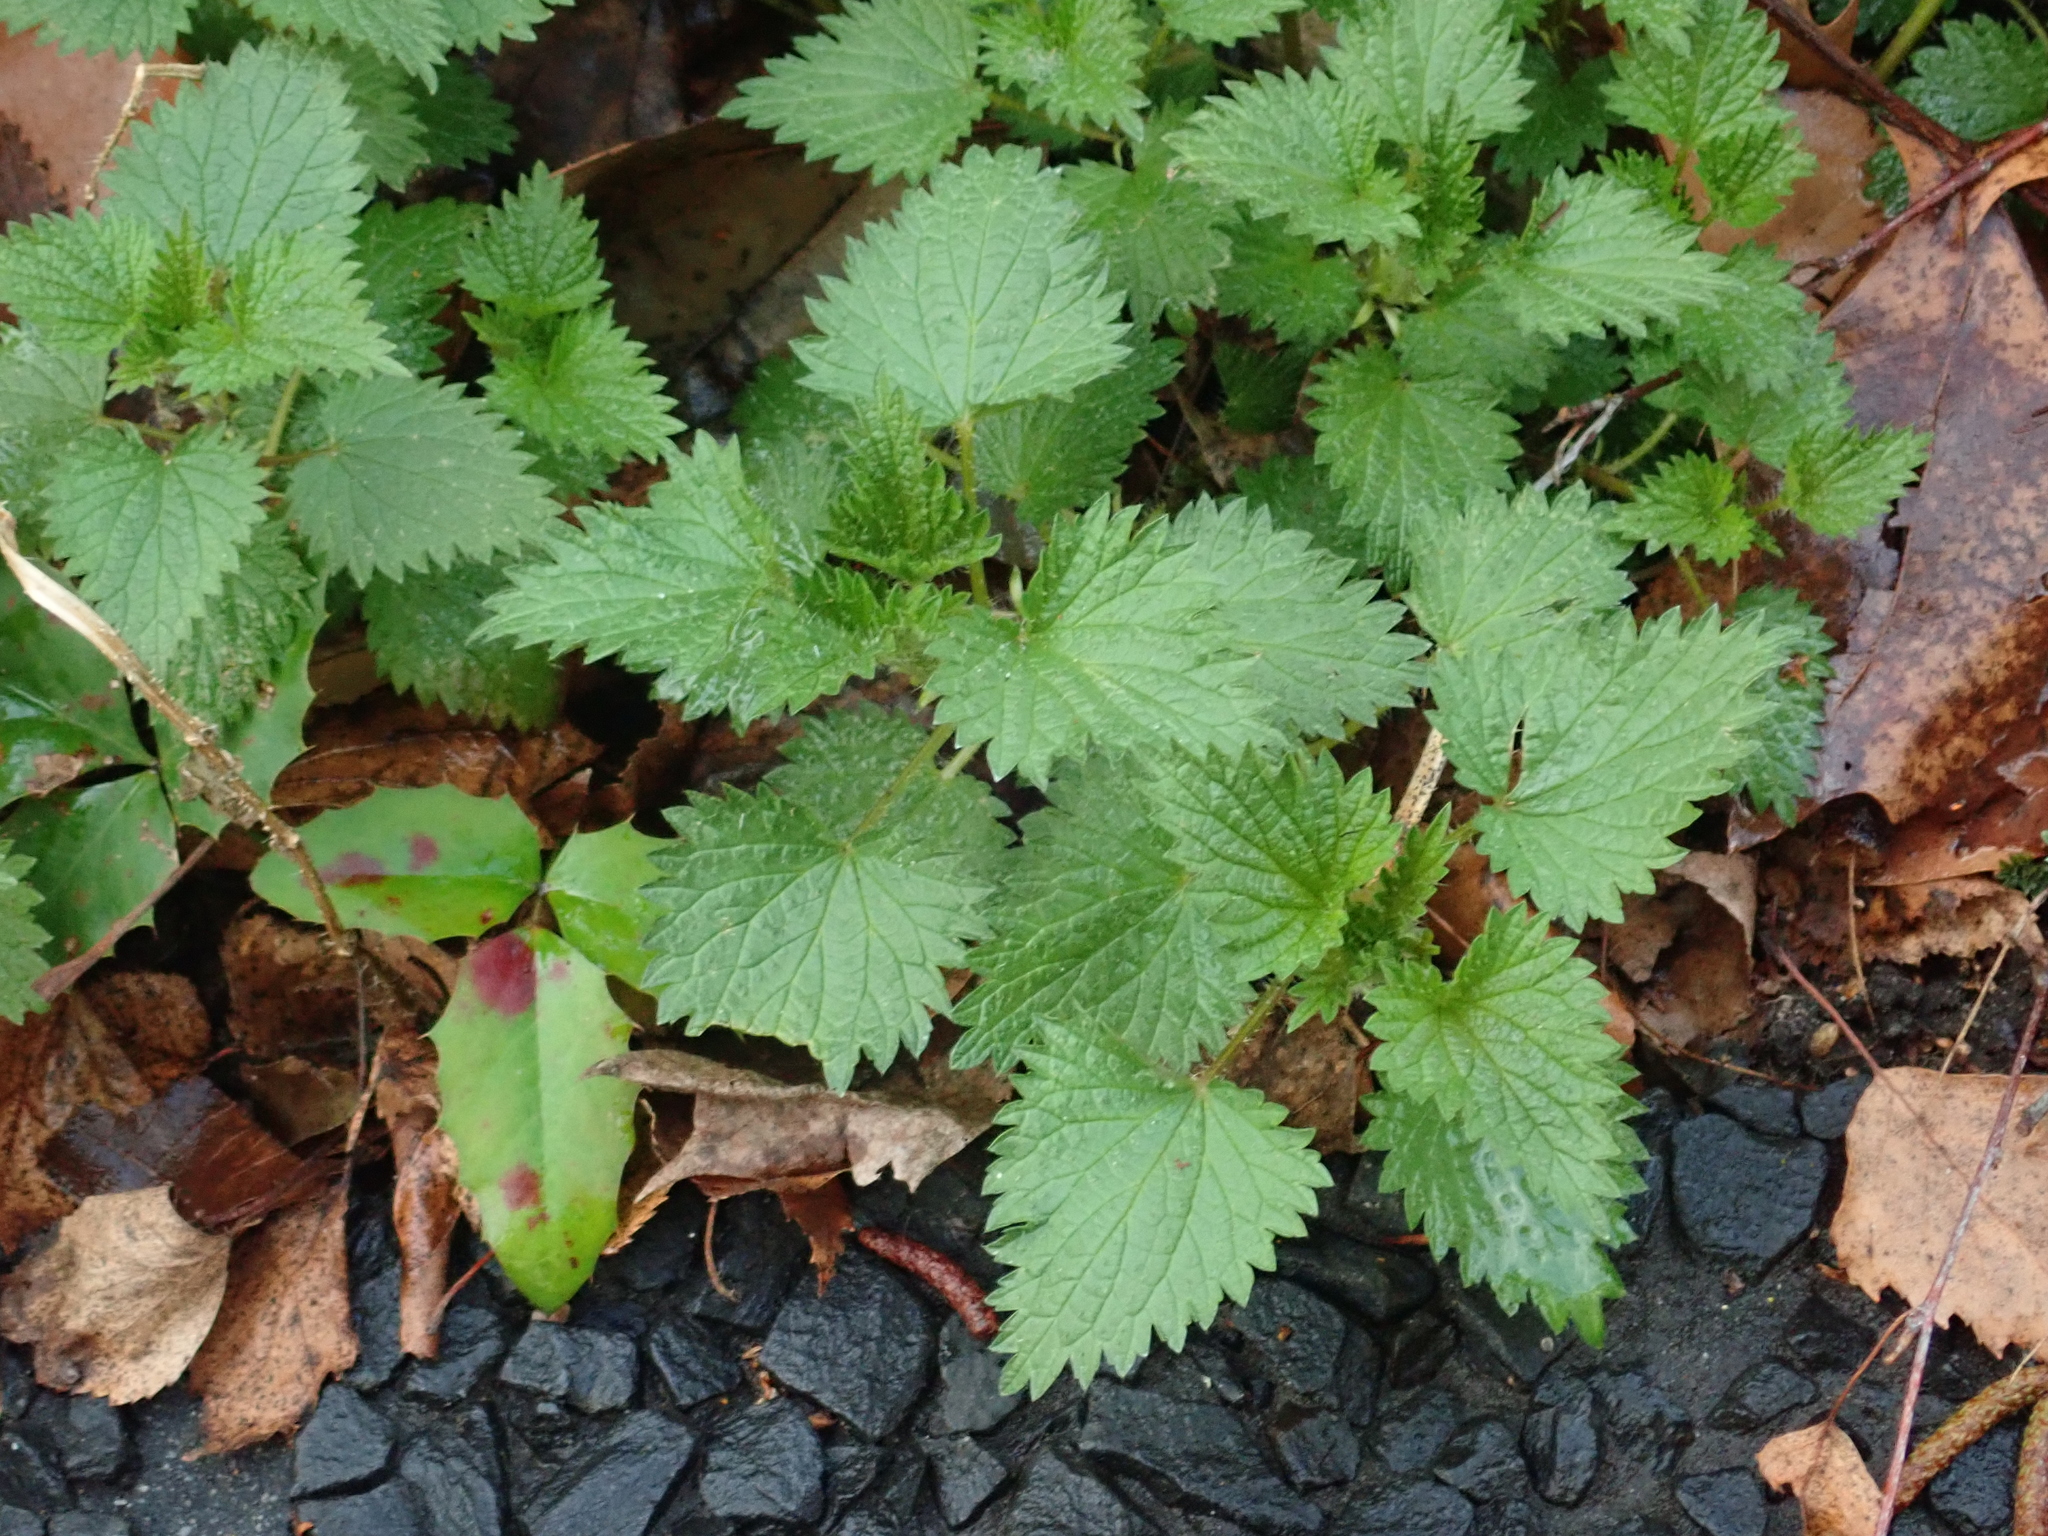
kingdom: Plantae
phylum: Tracheophyta
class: Magnoliopsida
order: Rosales
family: Urticaceae
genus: Urtica
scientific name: Urtica dioica
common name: Common nettle
